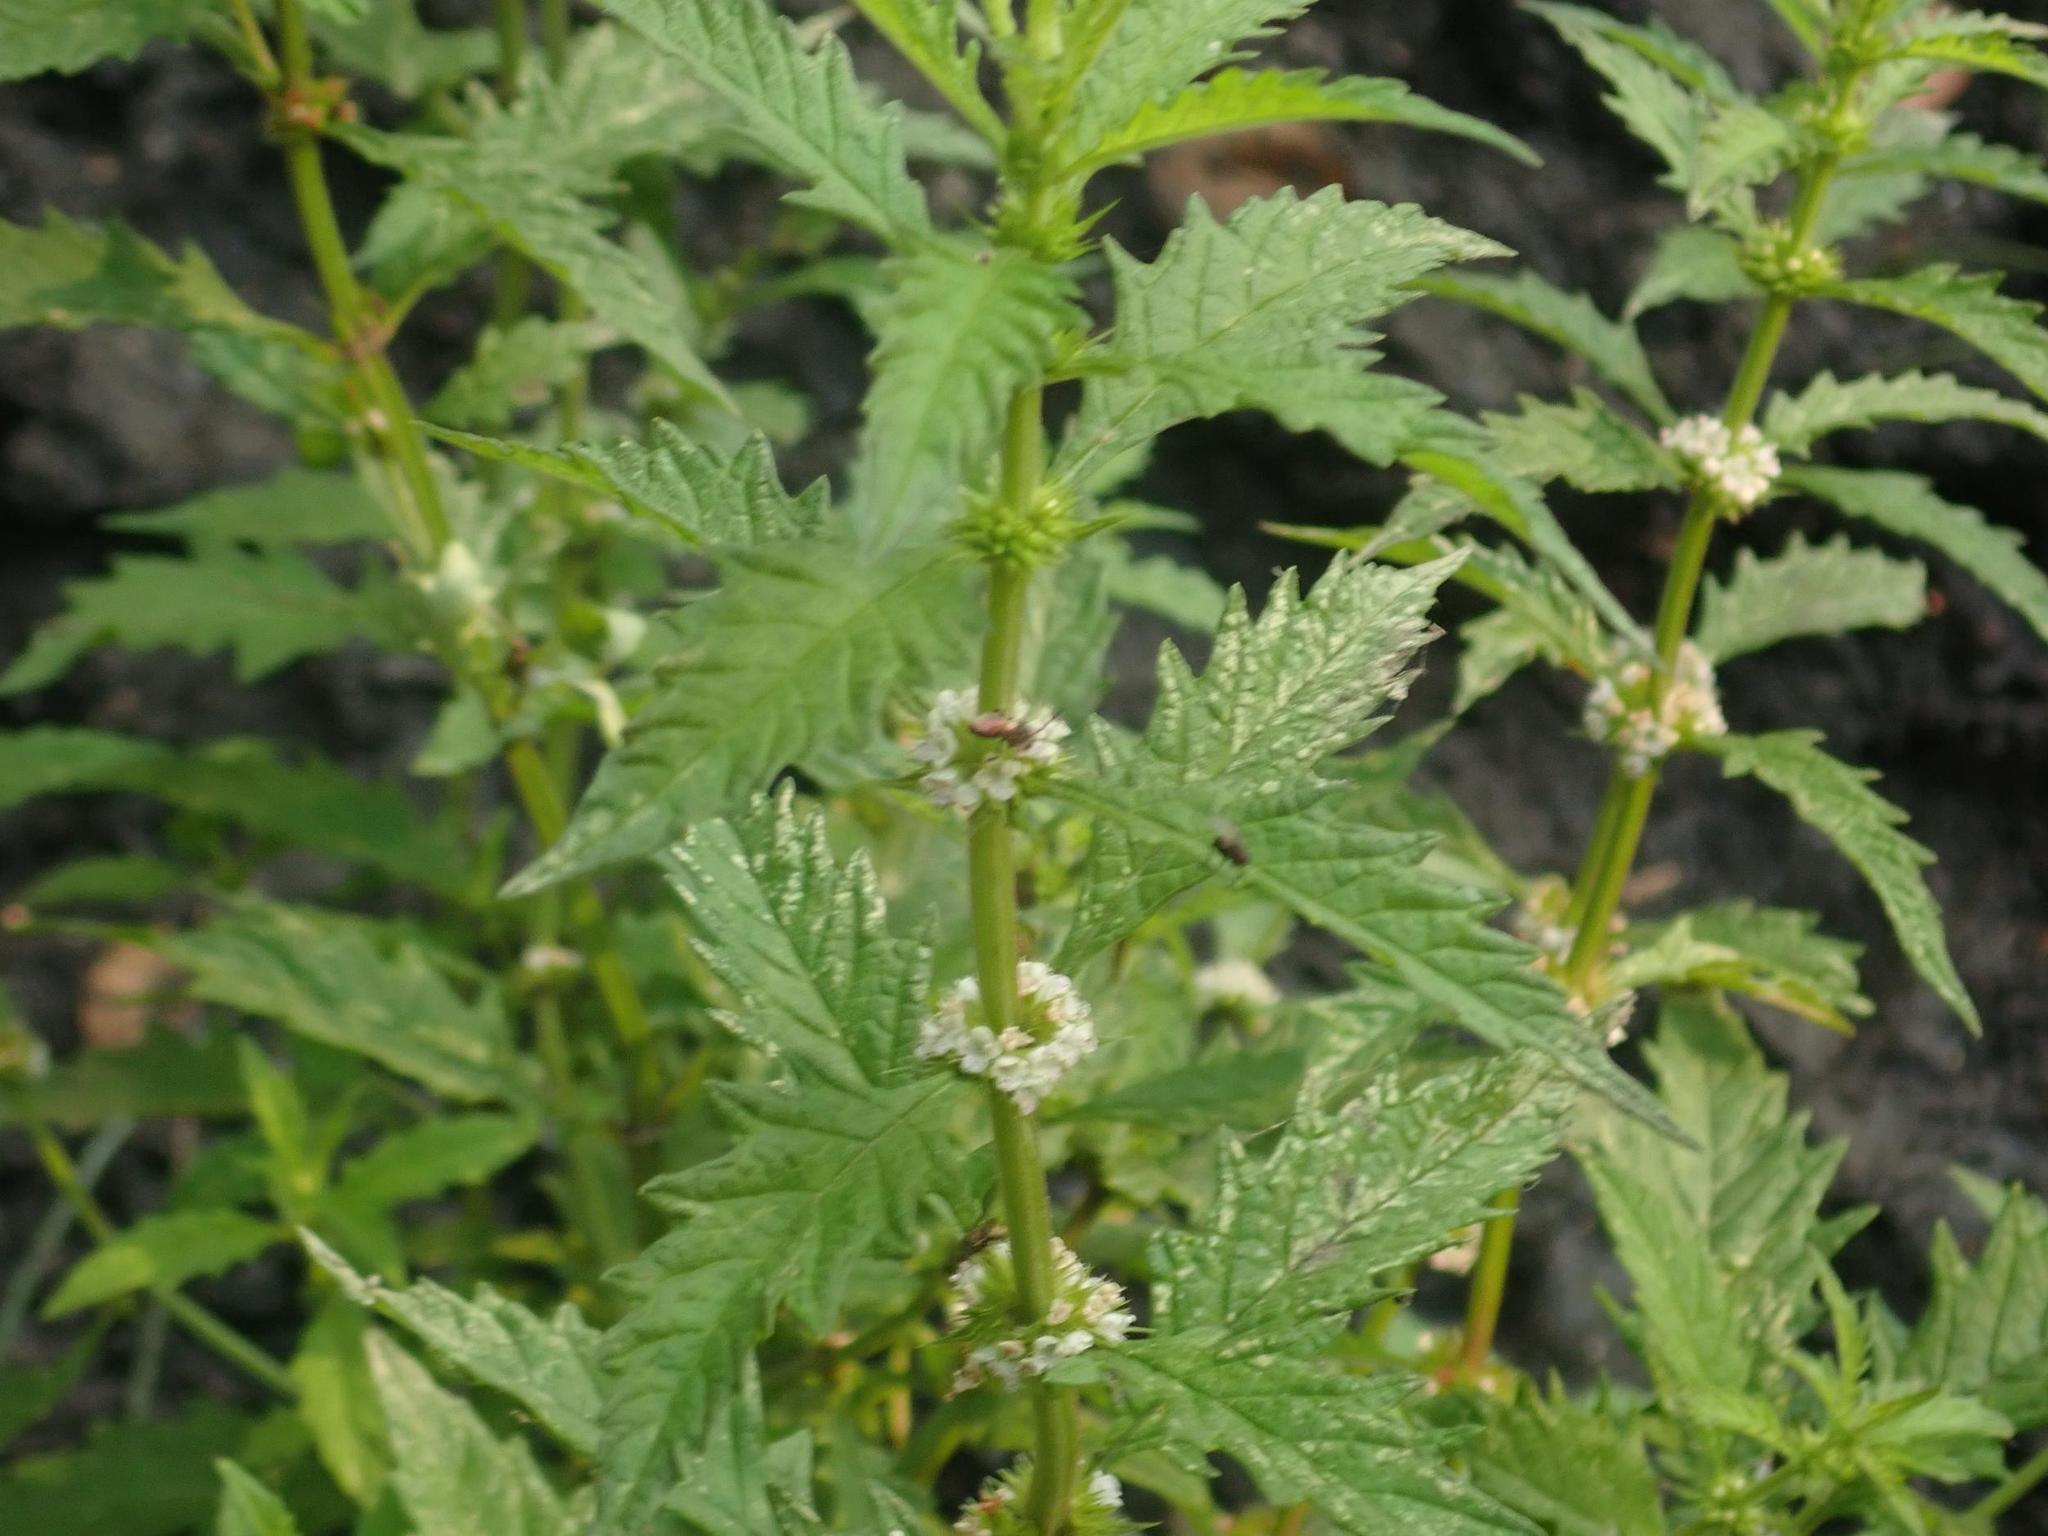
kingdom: Plantae
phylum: Tracheophyta
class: Magnoliopsida
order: Lamiales
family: Lamiaceae
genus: Lycopus
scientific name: Lycopus europaeus
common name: European bugleweed
